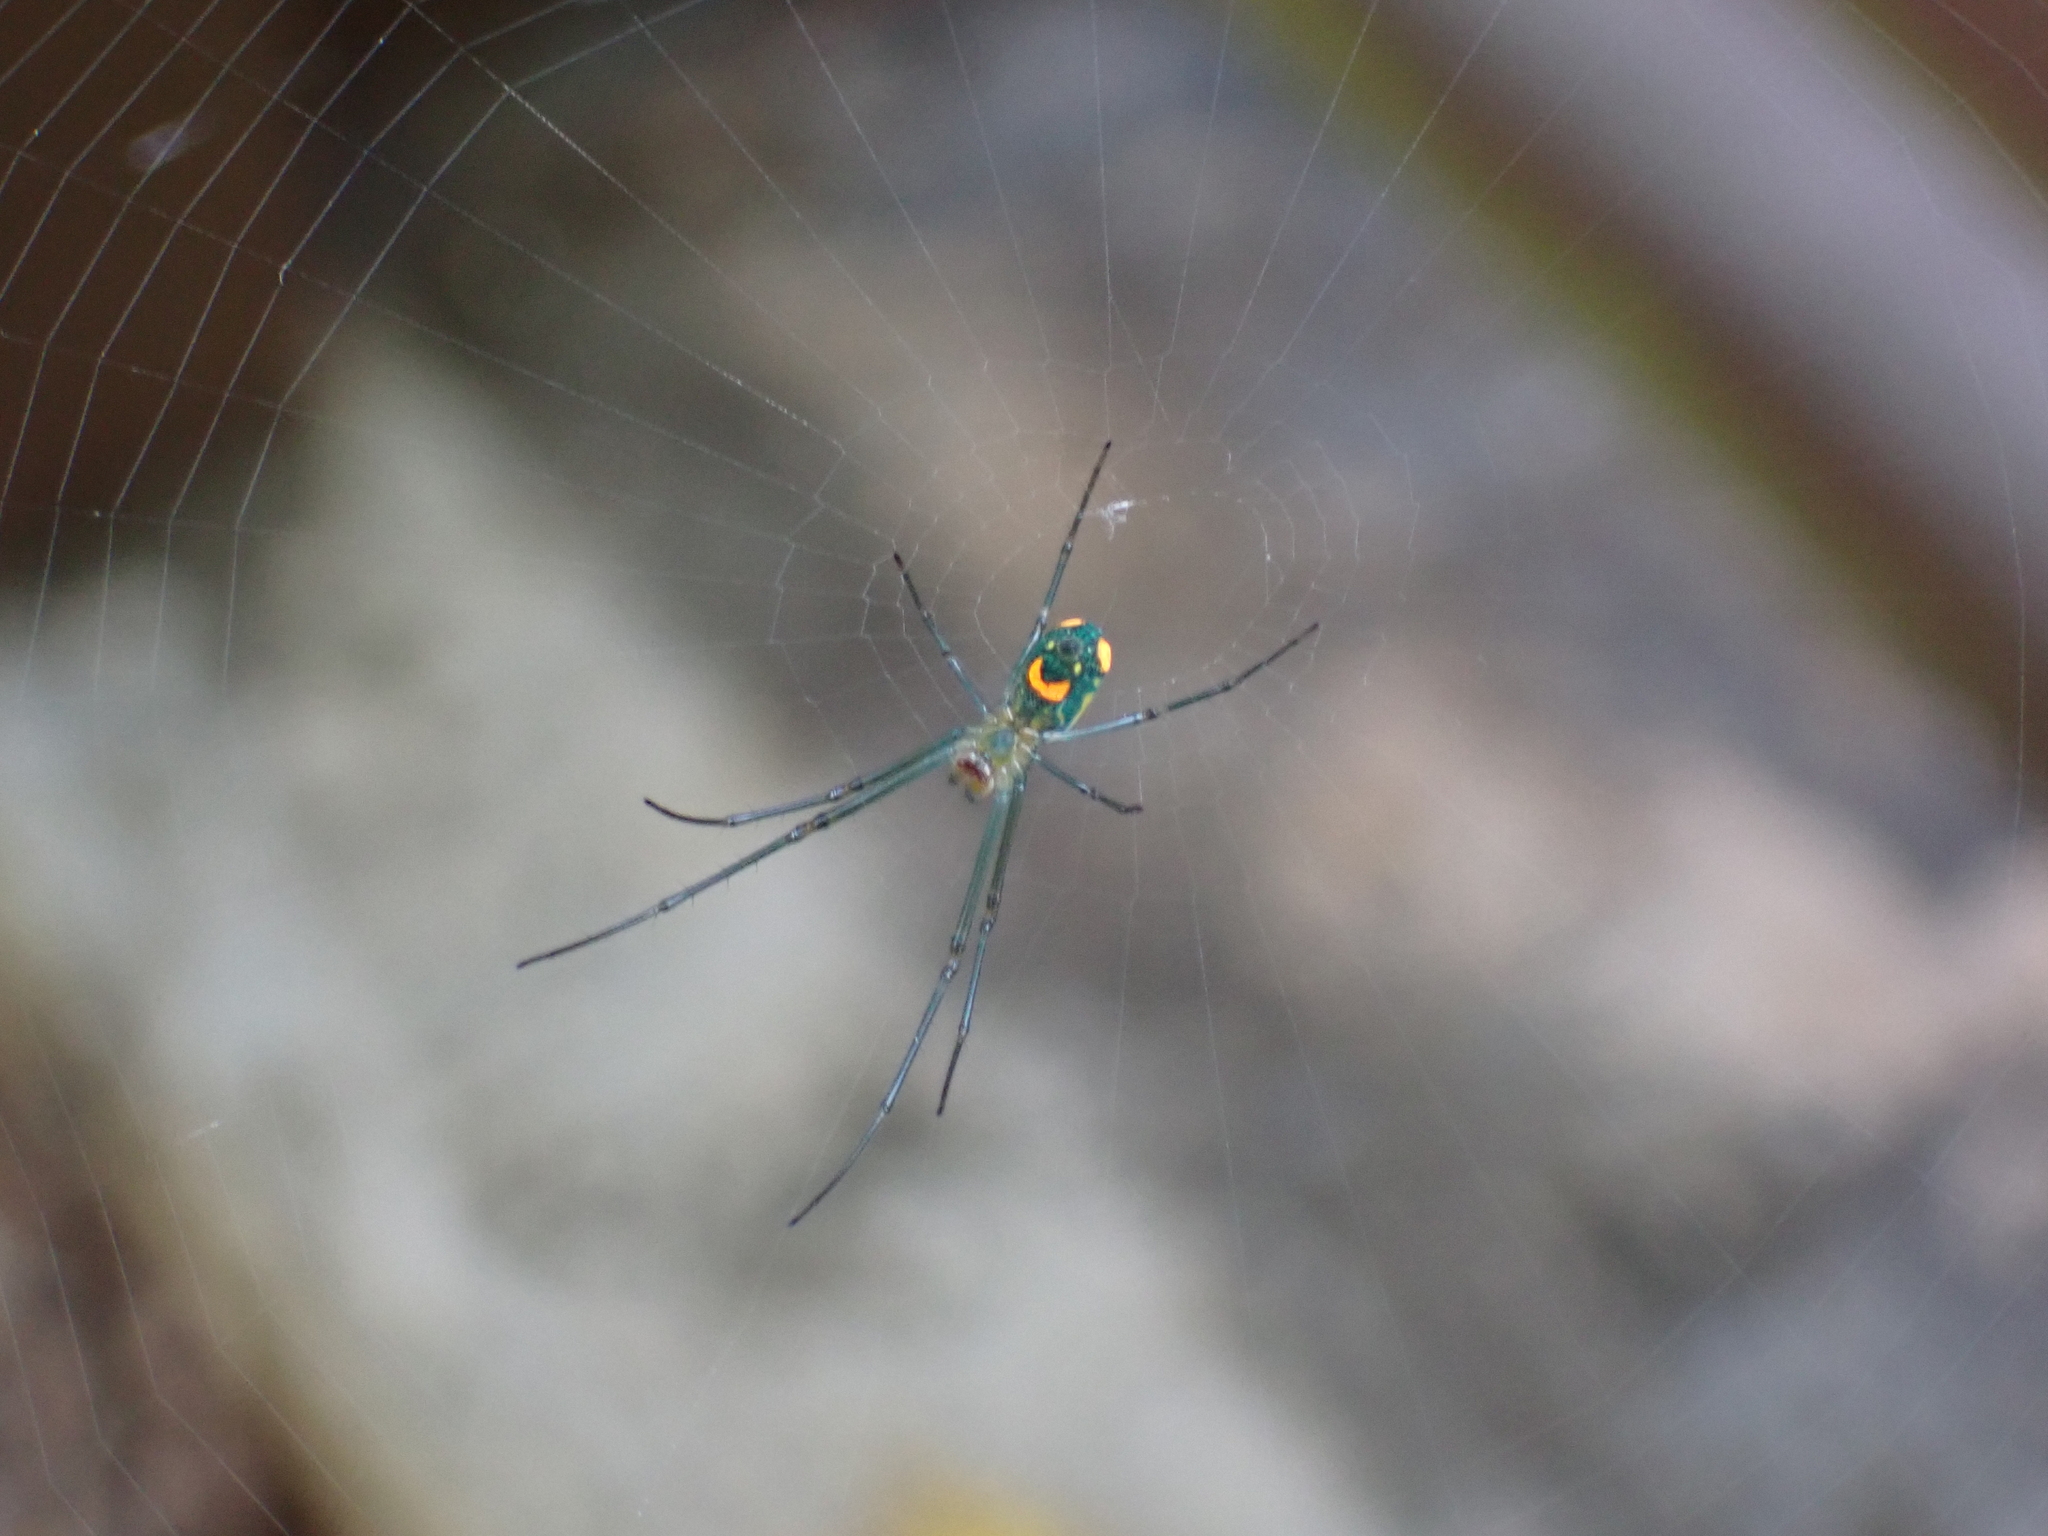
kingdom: Animalia
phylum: Arthropoda
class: Arachnida
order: Araneae
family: Tetragnathidae
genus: Leucauge
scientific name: Leucauge argyrobapta
